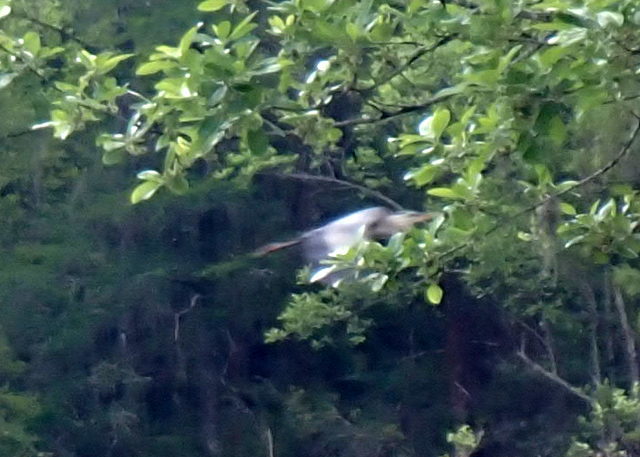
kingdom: Animalia
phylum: Chordata
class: Aves
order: Pelecaniformes
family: Ardeidae
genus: Ardea
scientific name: Ardea herodias
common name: Great blue heron
